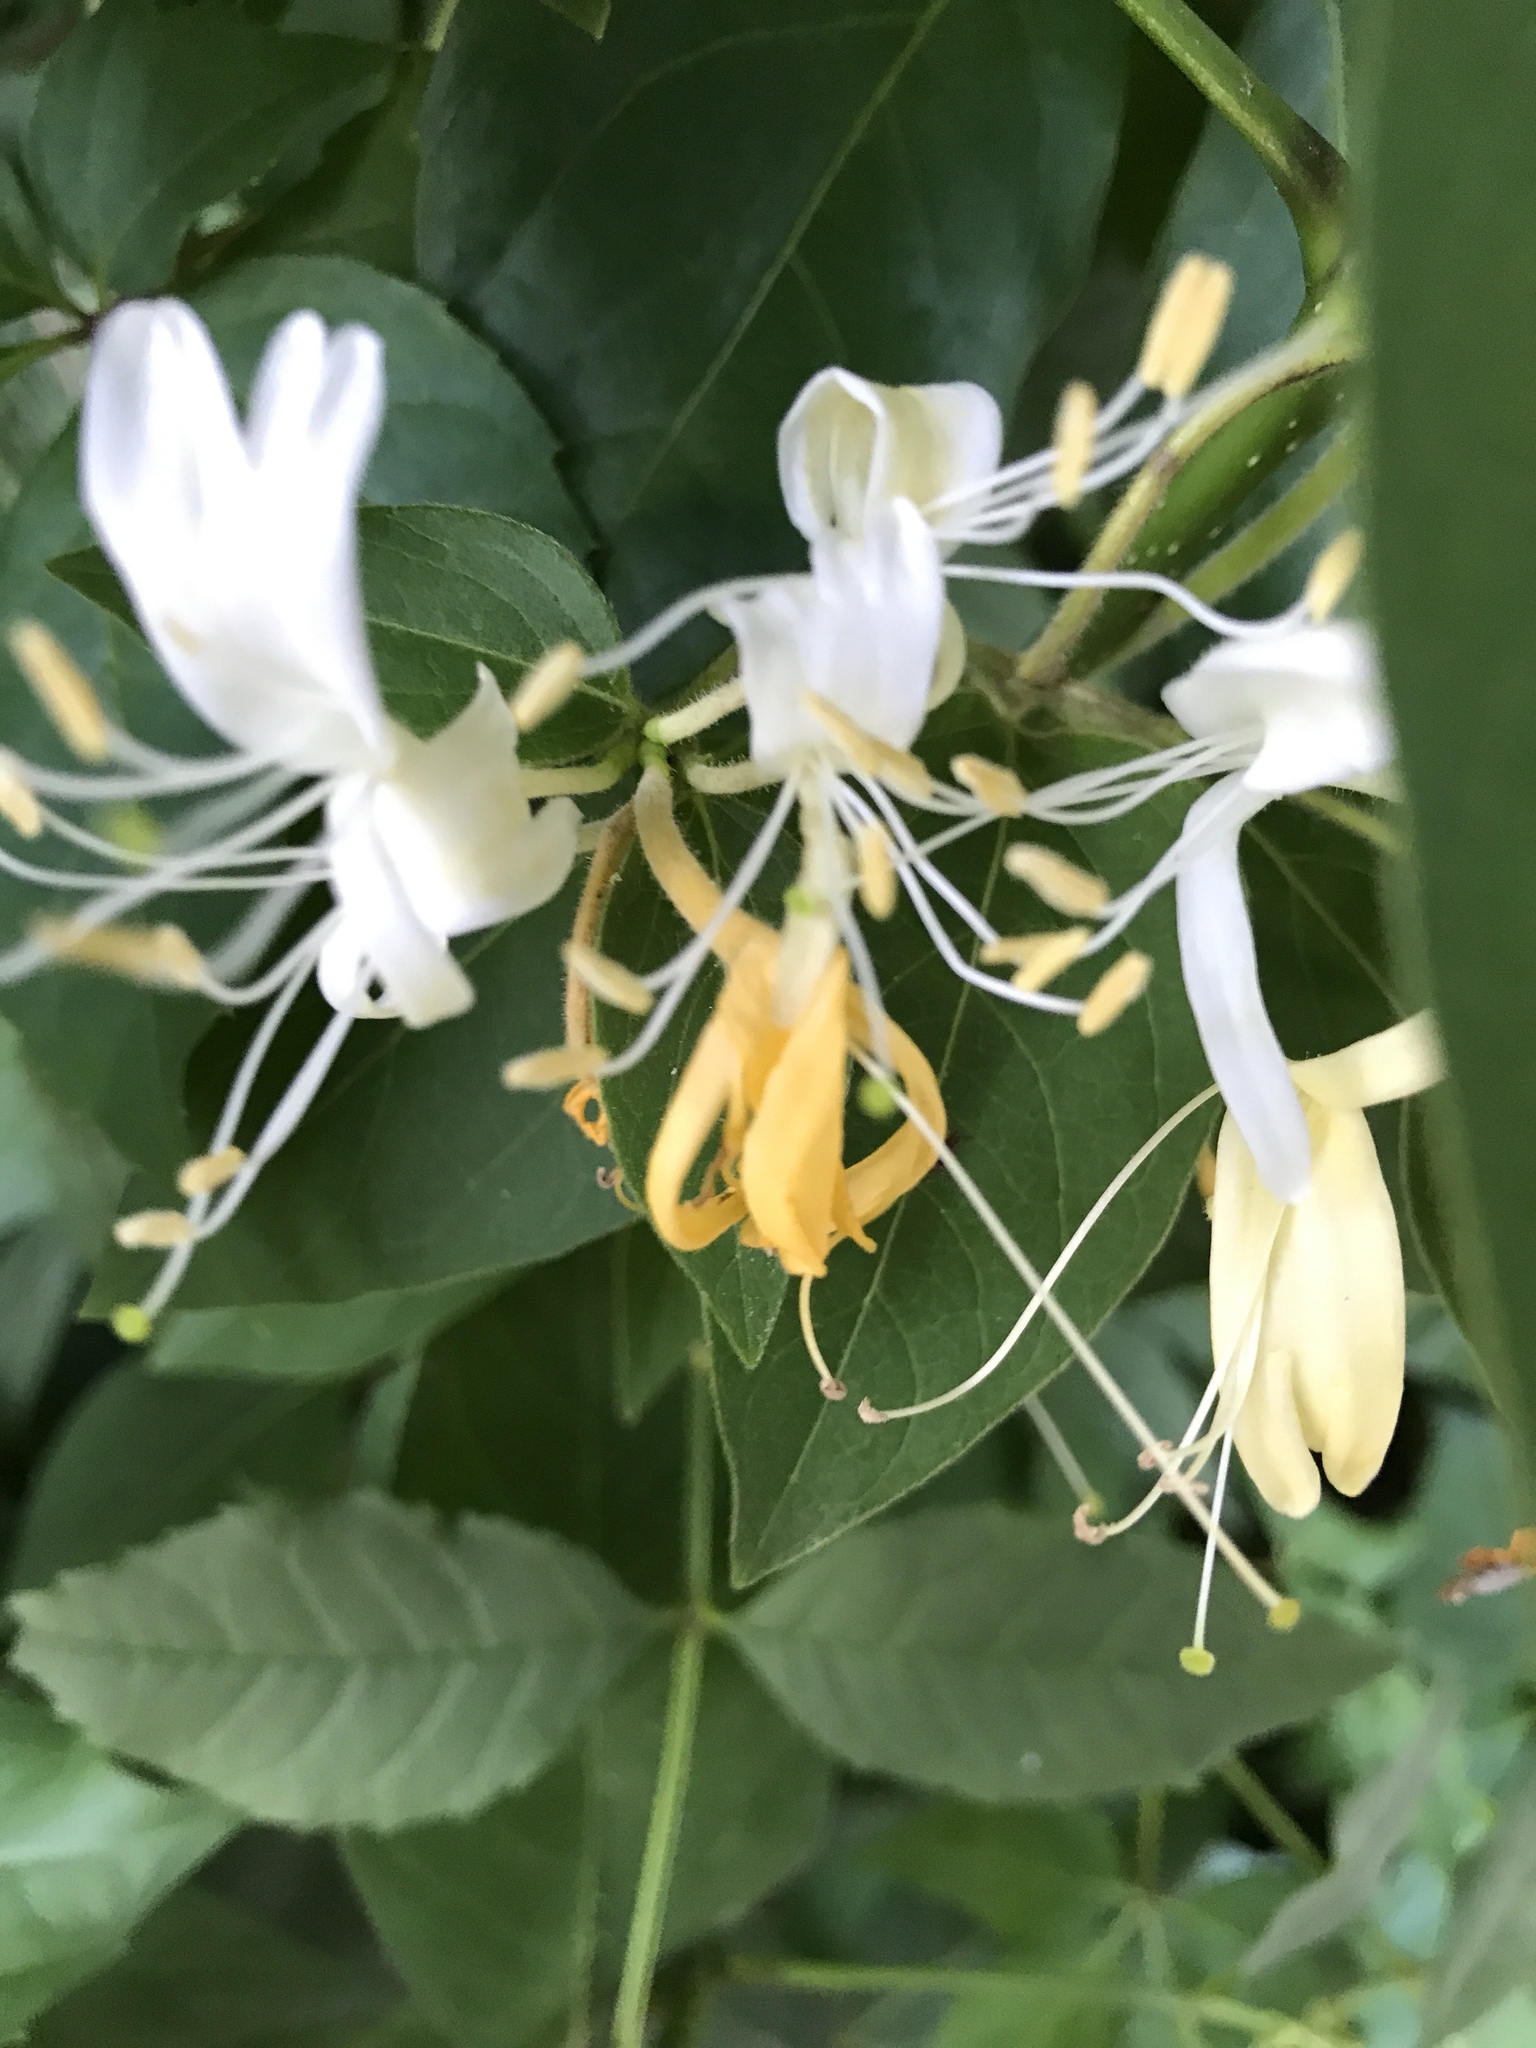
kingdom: Plantae
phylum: Tracheophyta
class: Magnoliopsida
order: Dipsacales
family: Caprifoliaceae
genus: Lonicera
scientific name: Lonicera japonica
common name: Japanese honeysuckle
